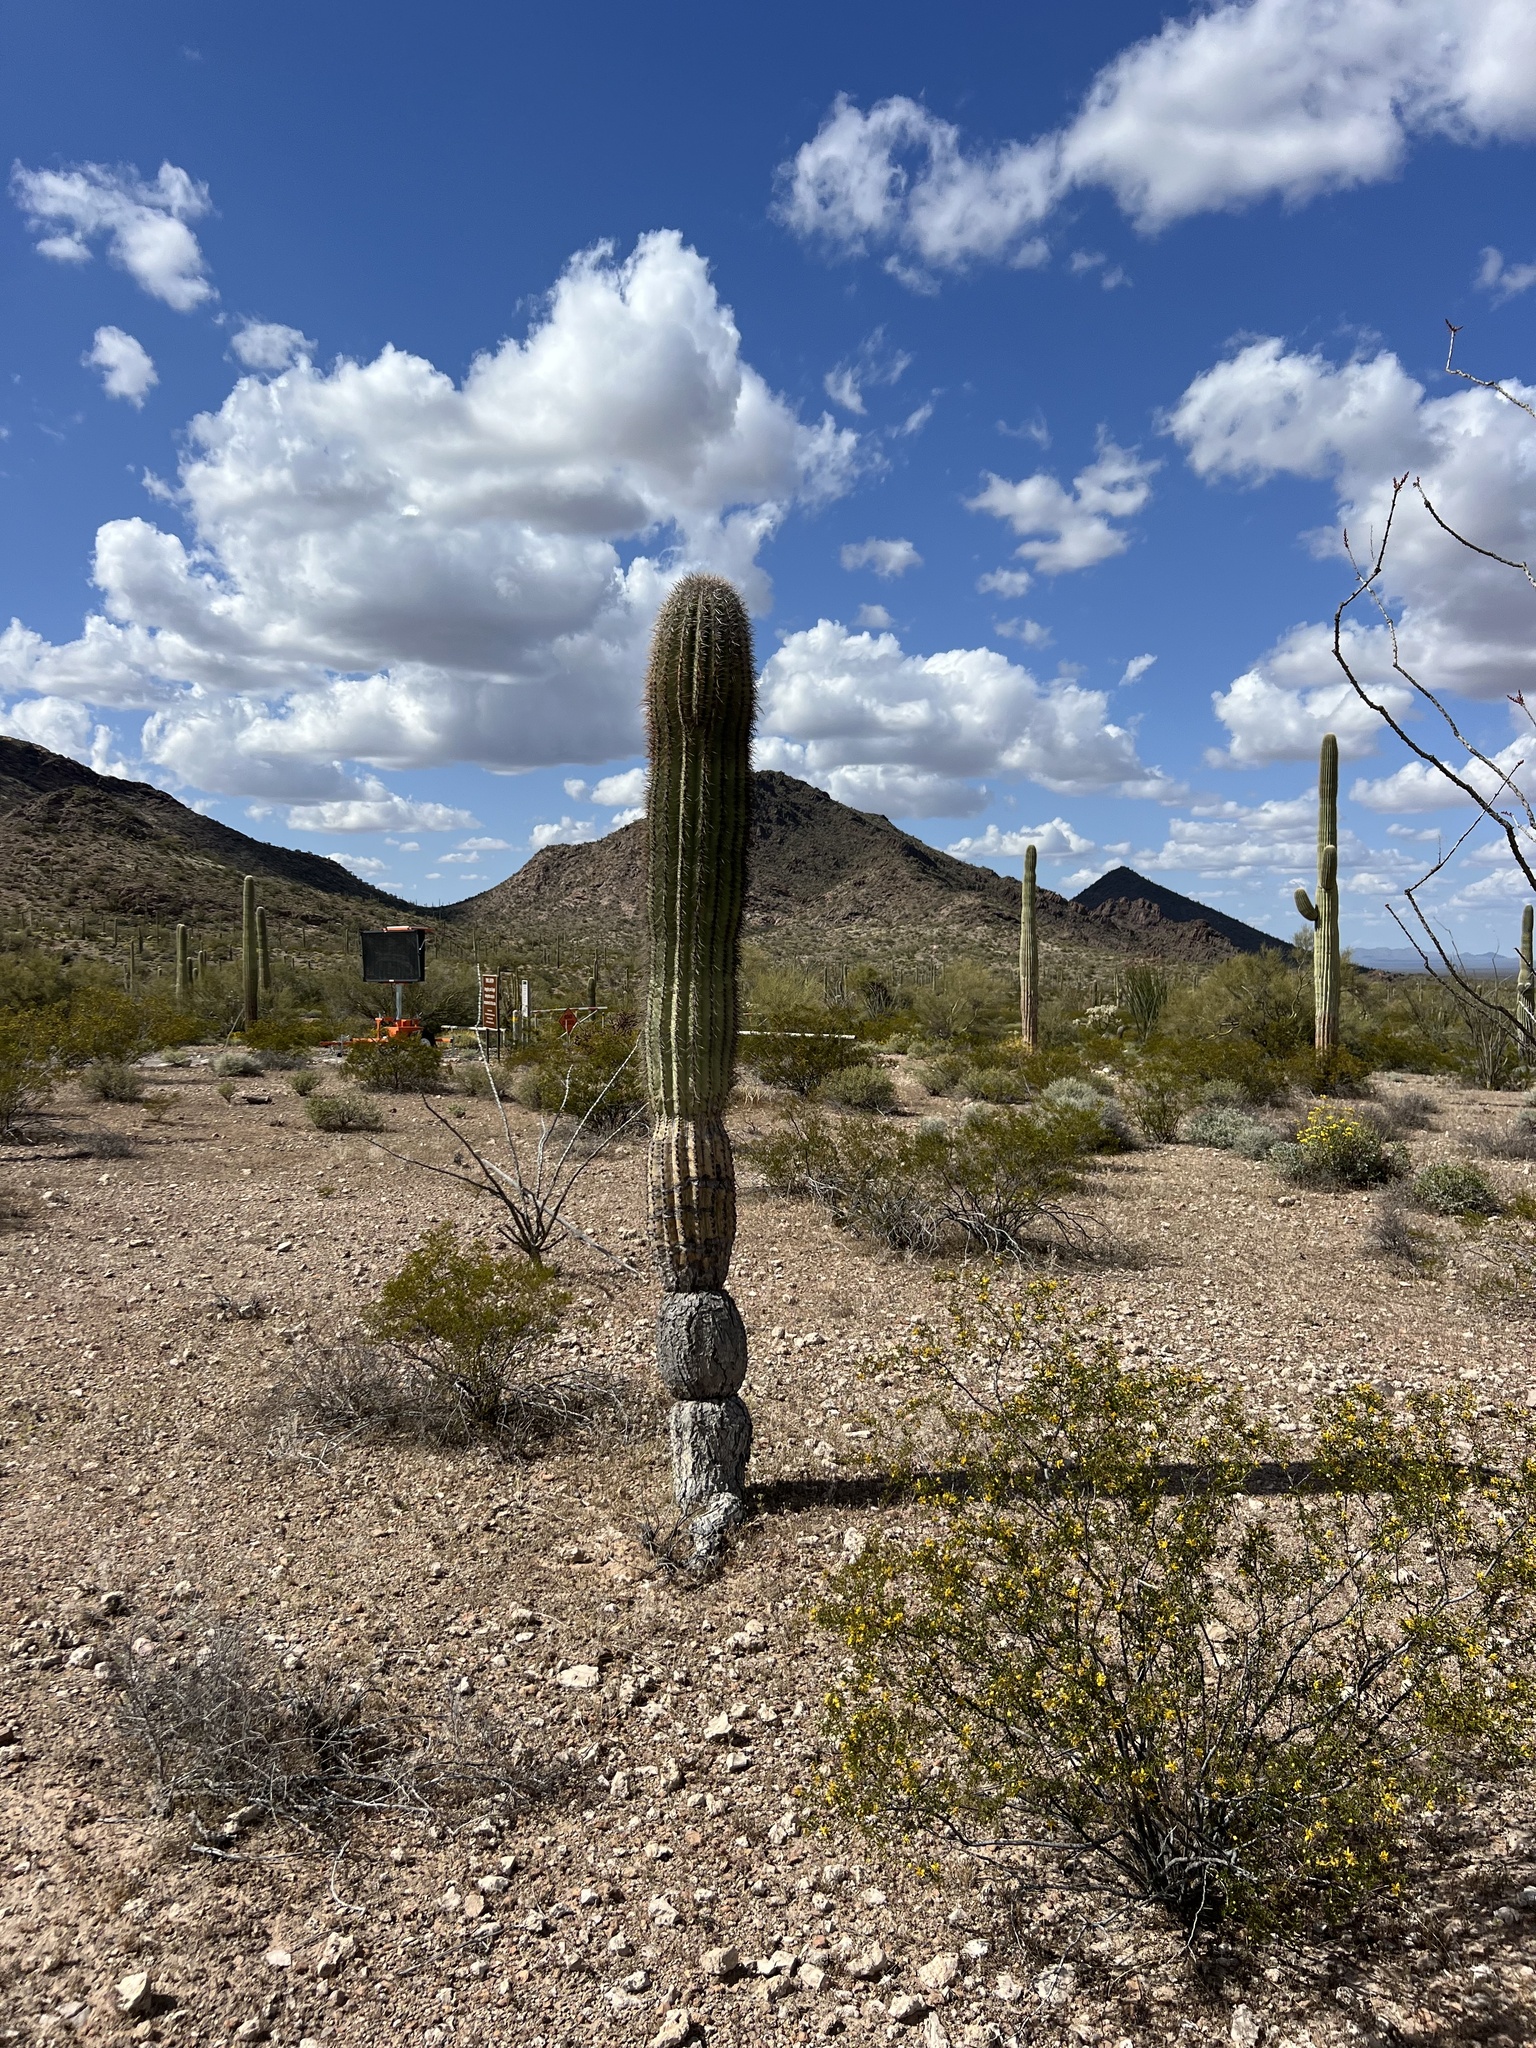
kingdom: Plantae
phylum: Tracheophyta
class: Magnoliopsida
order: Caryophyllales
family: Cactaceae
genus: Carnegiea
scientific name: Carnegiea gigantea
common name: Saguaro
